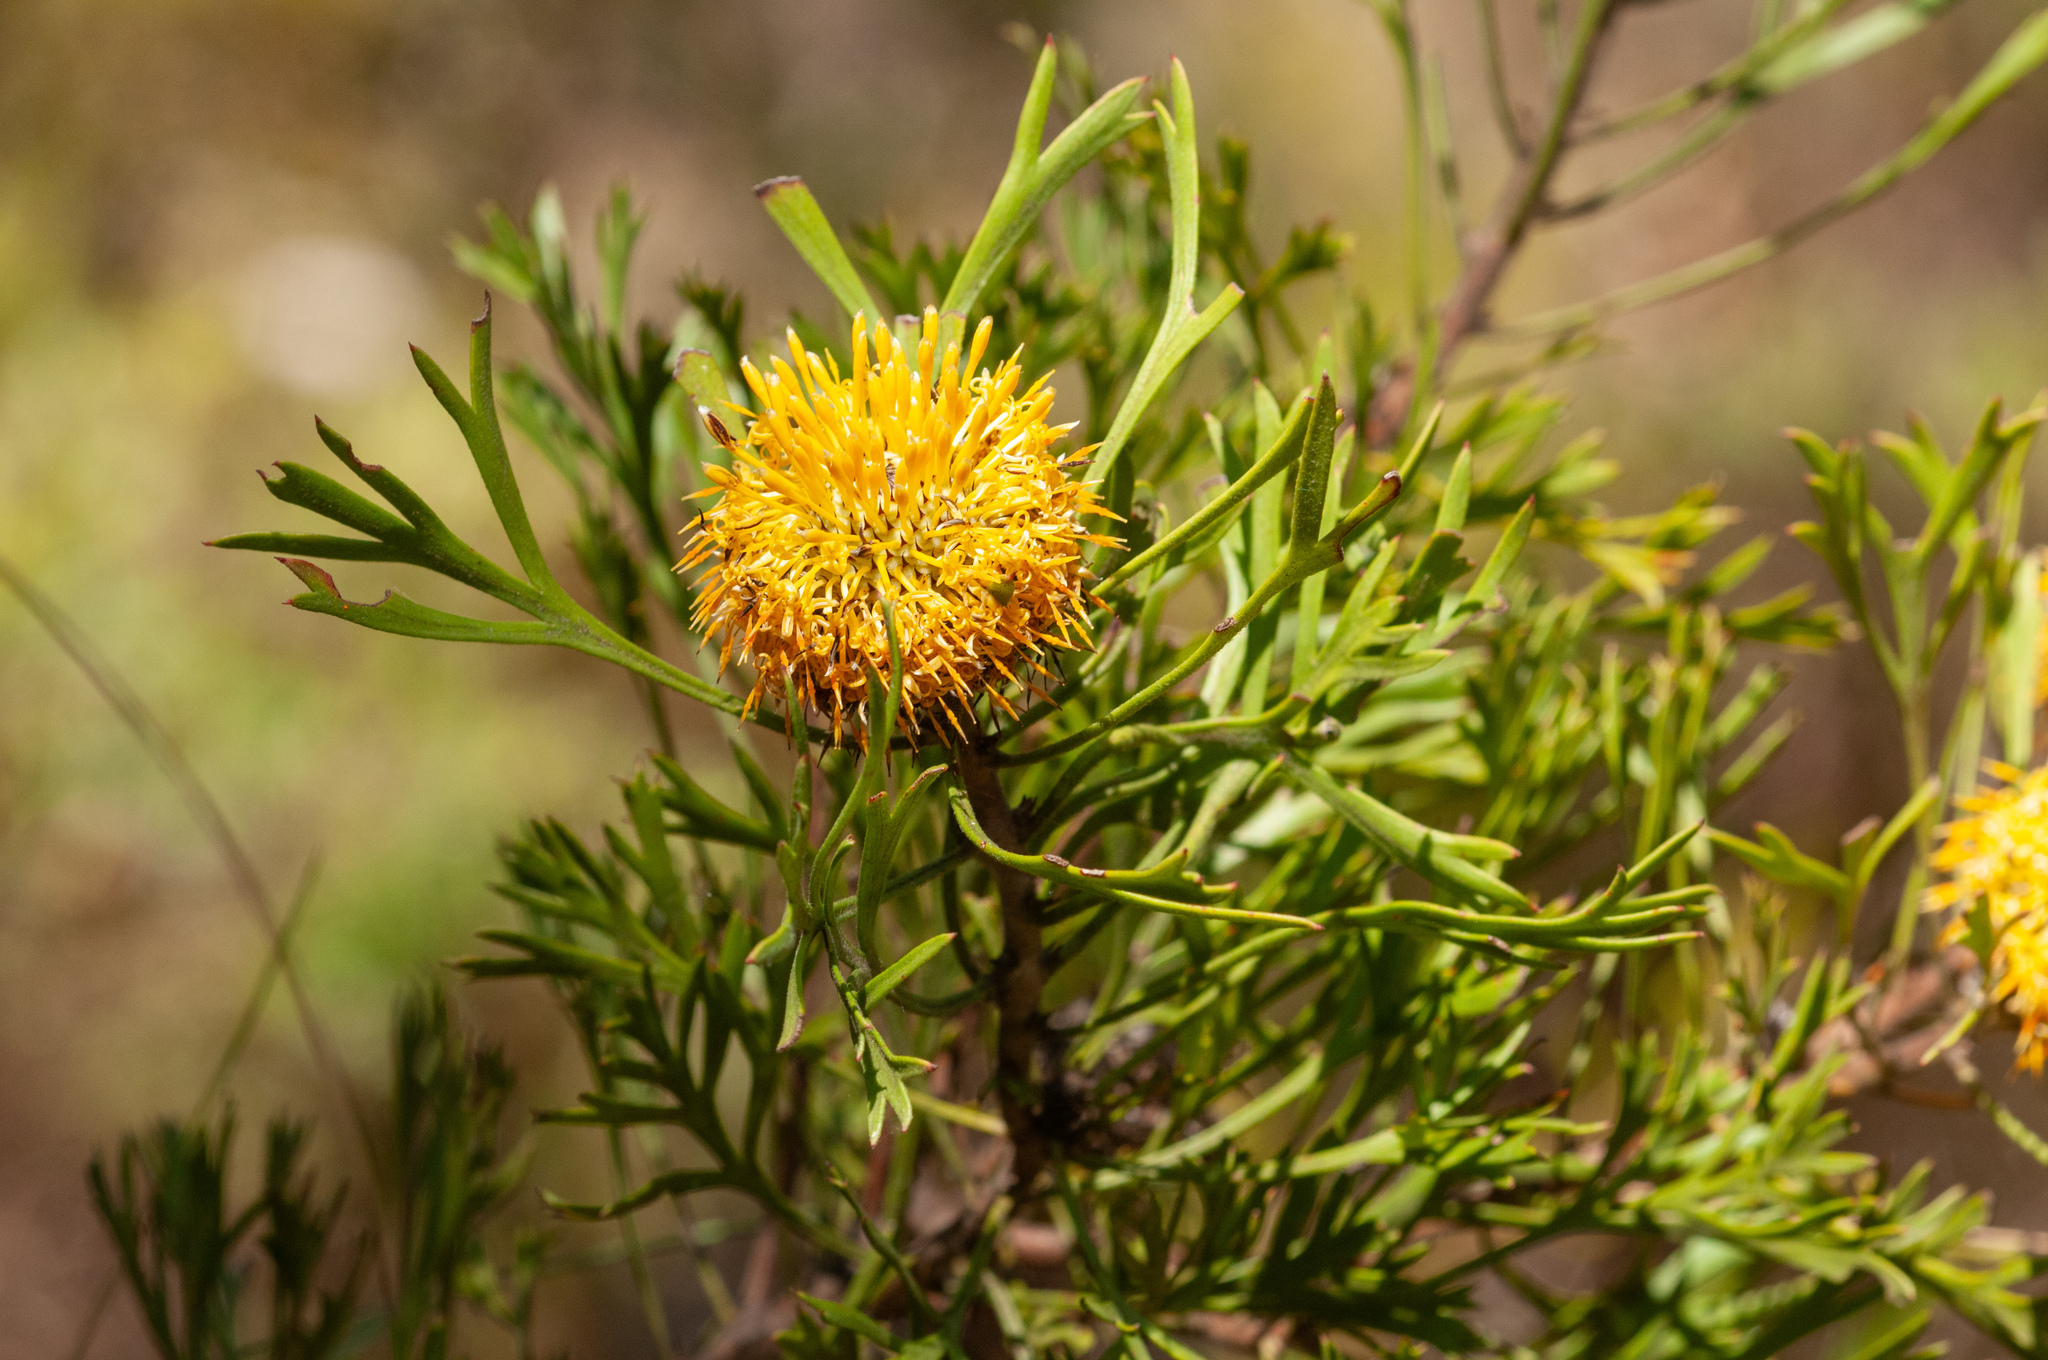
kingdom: Plantae
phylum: Tracheophyta
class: Magnoliopsida
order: Proteales
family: Proteaceae
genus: Isopogon
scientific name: Isopogon anemonifolius
